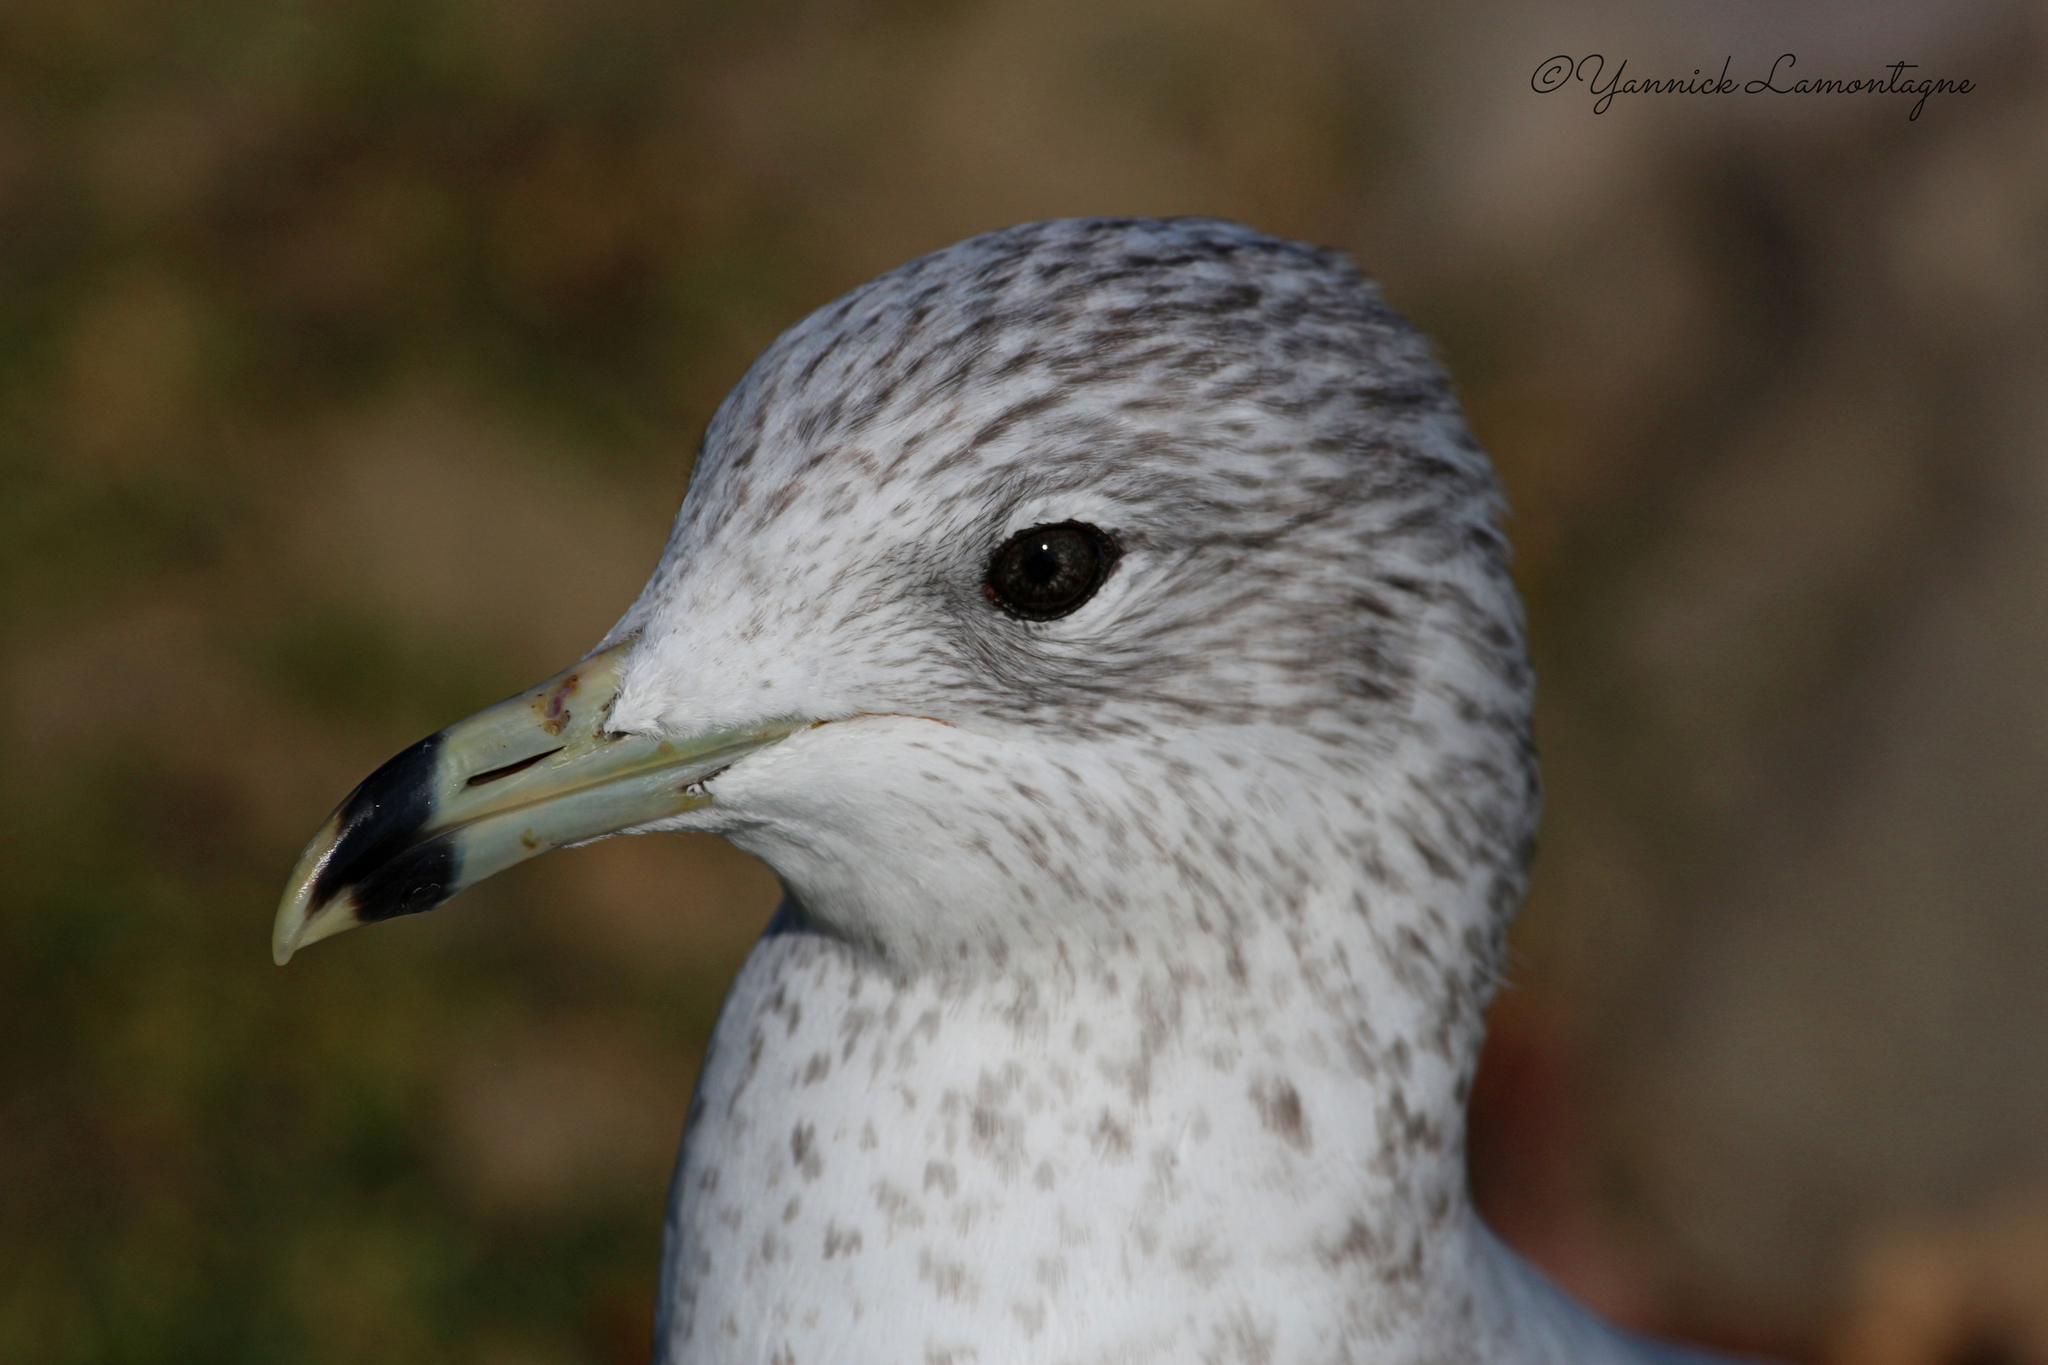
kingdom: Animalia
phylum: Chordata
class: Aves
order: Charadriiformes
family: Laridae
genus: Larus
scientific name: Larus delawarensis
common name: Ring-billed gull
